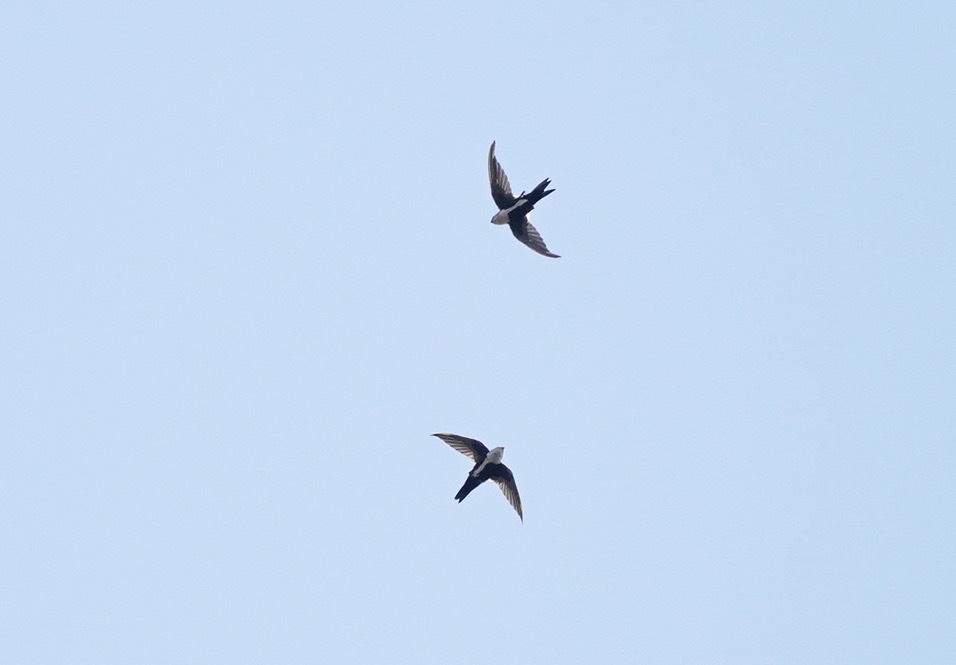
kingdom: Animalia
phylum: Chordata
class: Aves
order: Apodiformes
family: Apodidae
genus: Aeronautes
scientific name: Aeronautes saxatalis
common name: White-throated swift
